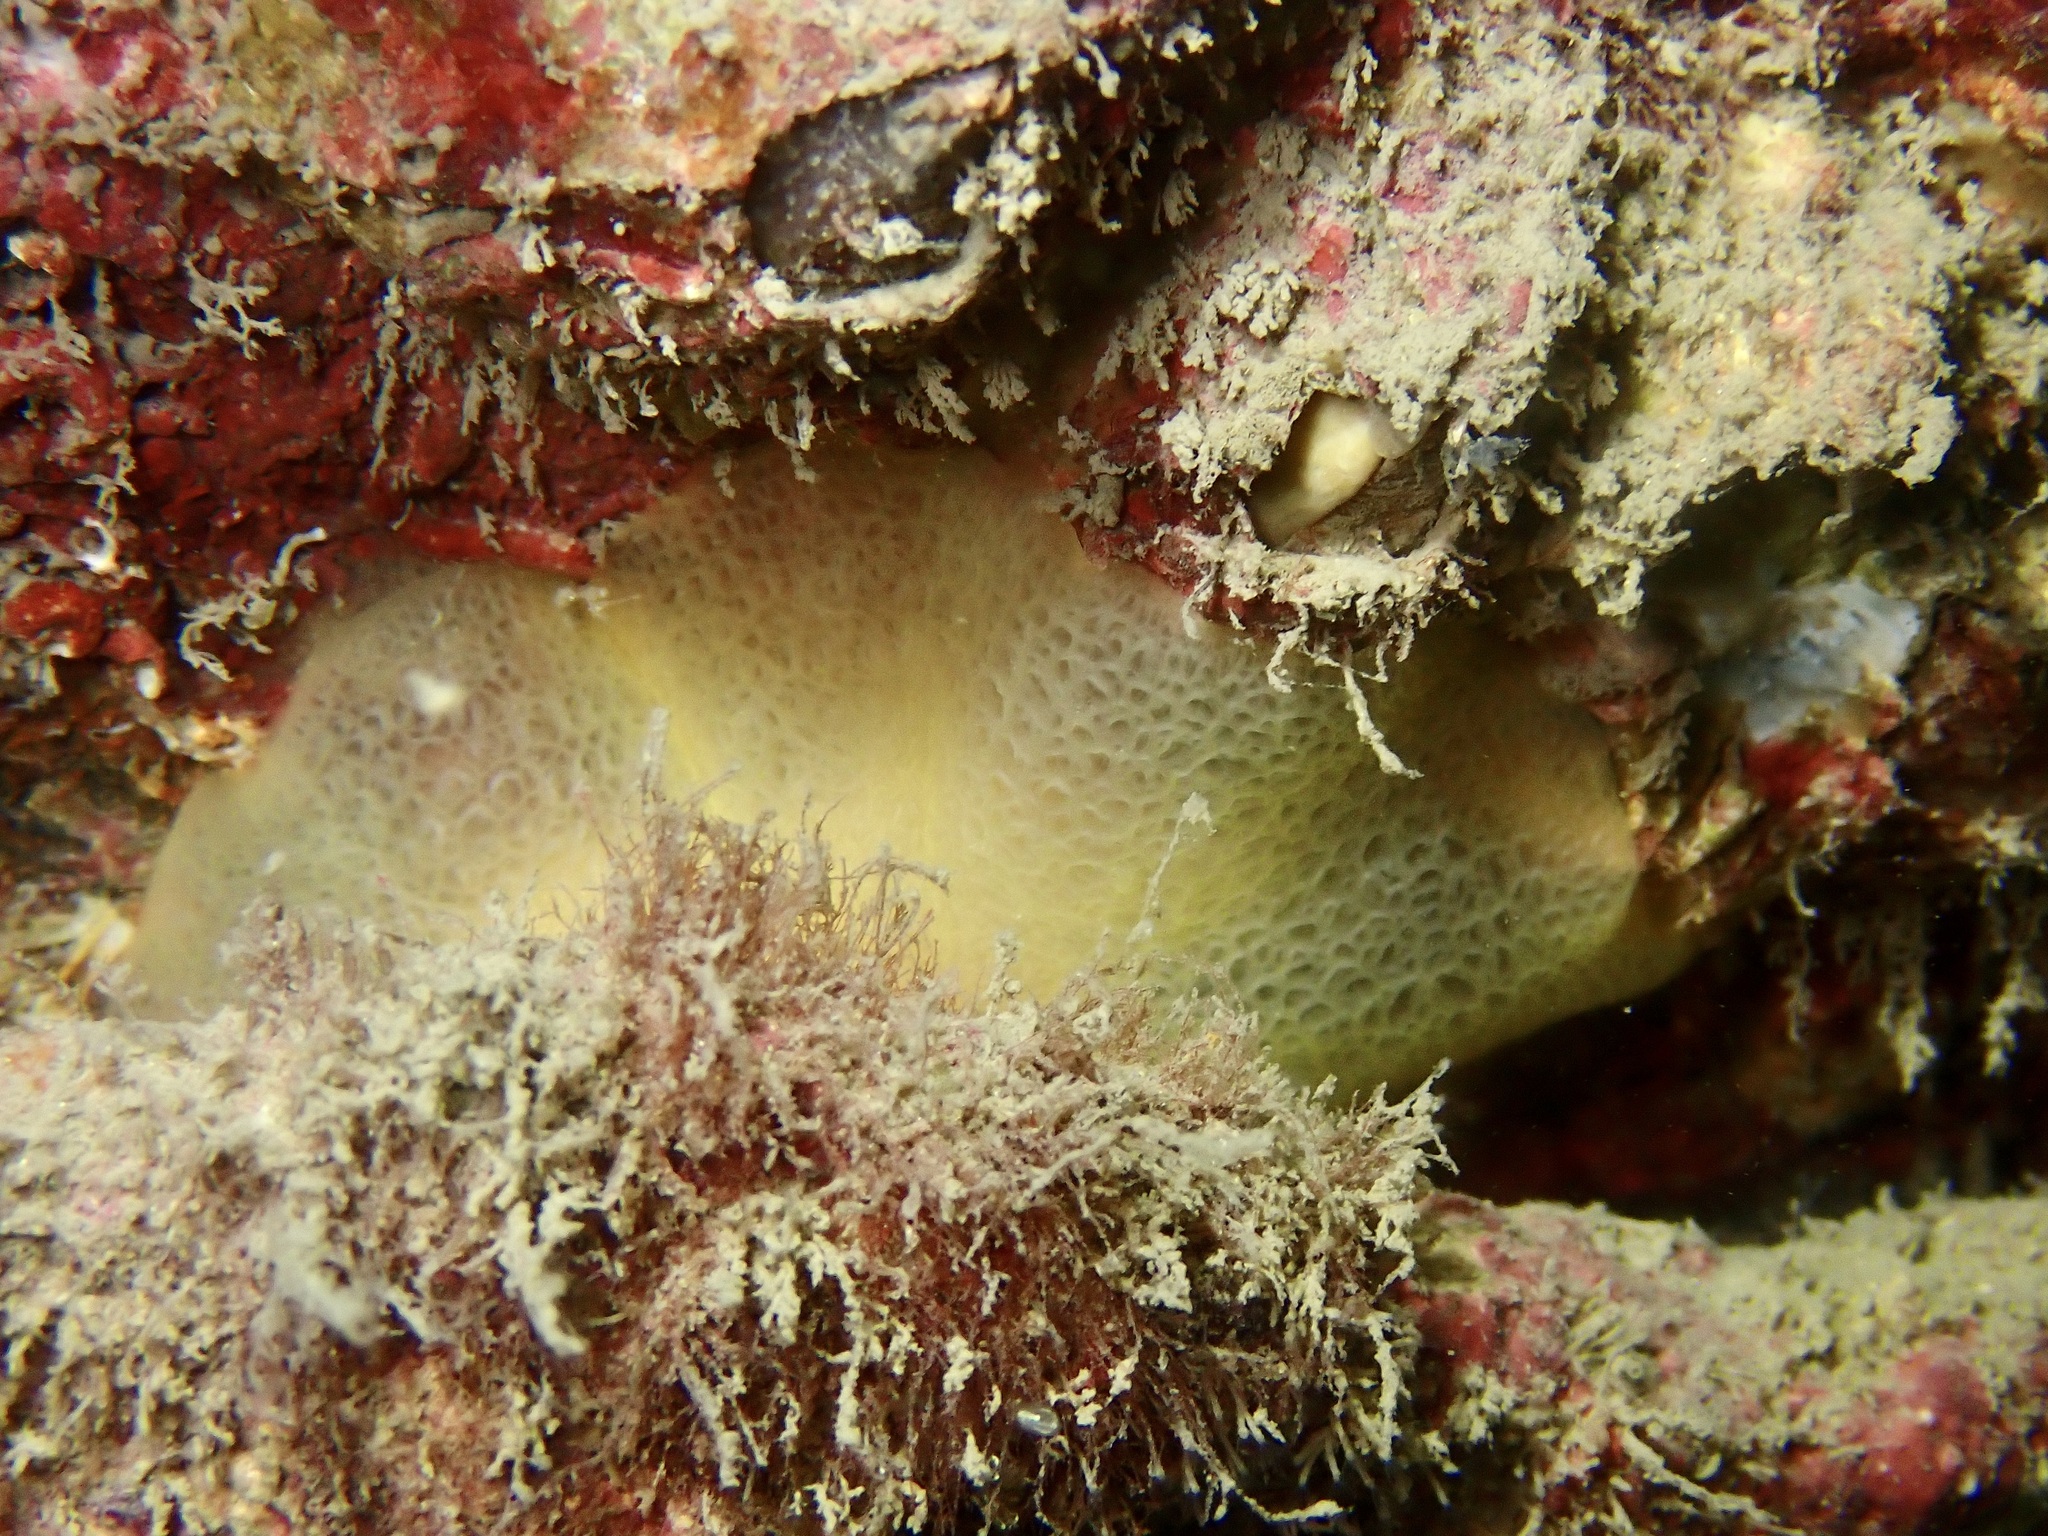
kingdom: Animalia
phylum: Mollusca
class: Gastropoda
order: Pleurobranchida
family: Pleurobranchidae
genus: Berthella
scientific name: Berthella plumula
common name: Yellow-plumed sea slug
